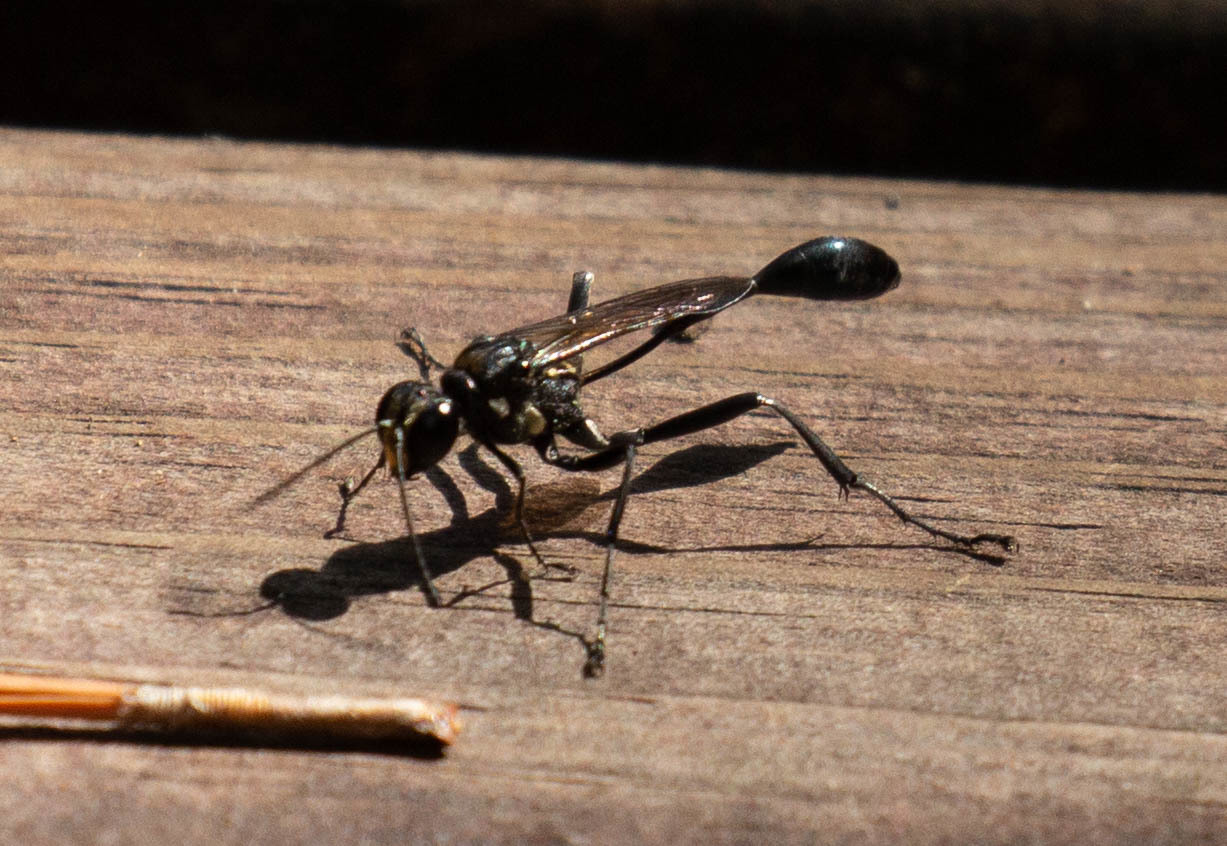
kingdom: Animalia
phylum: Arthropoda
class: Insecta
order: Hymenoptera
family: Sphecidae
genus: Eremnophila
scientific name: Eremnophila aureonotata
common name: Gold-marked thread-waisted wasp
